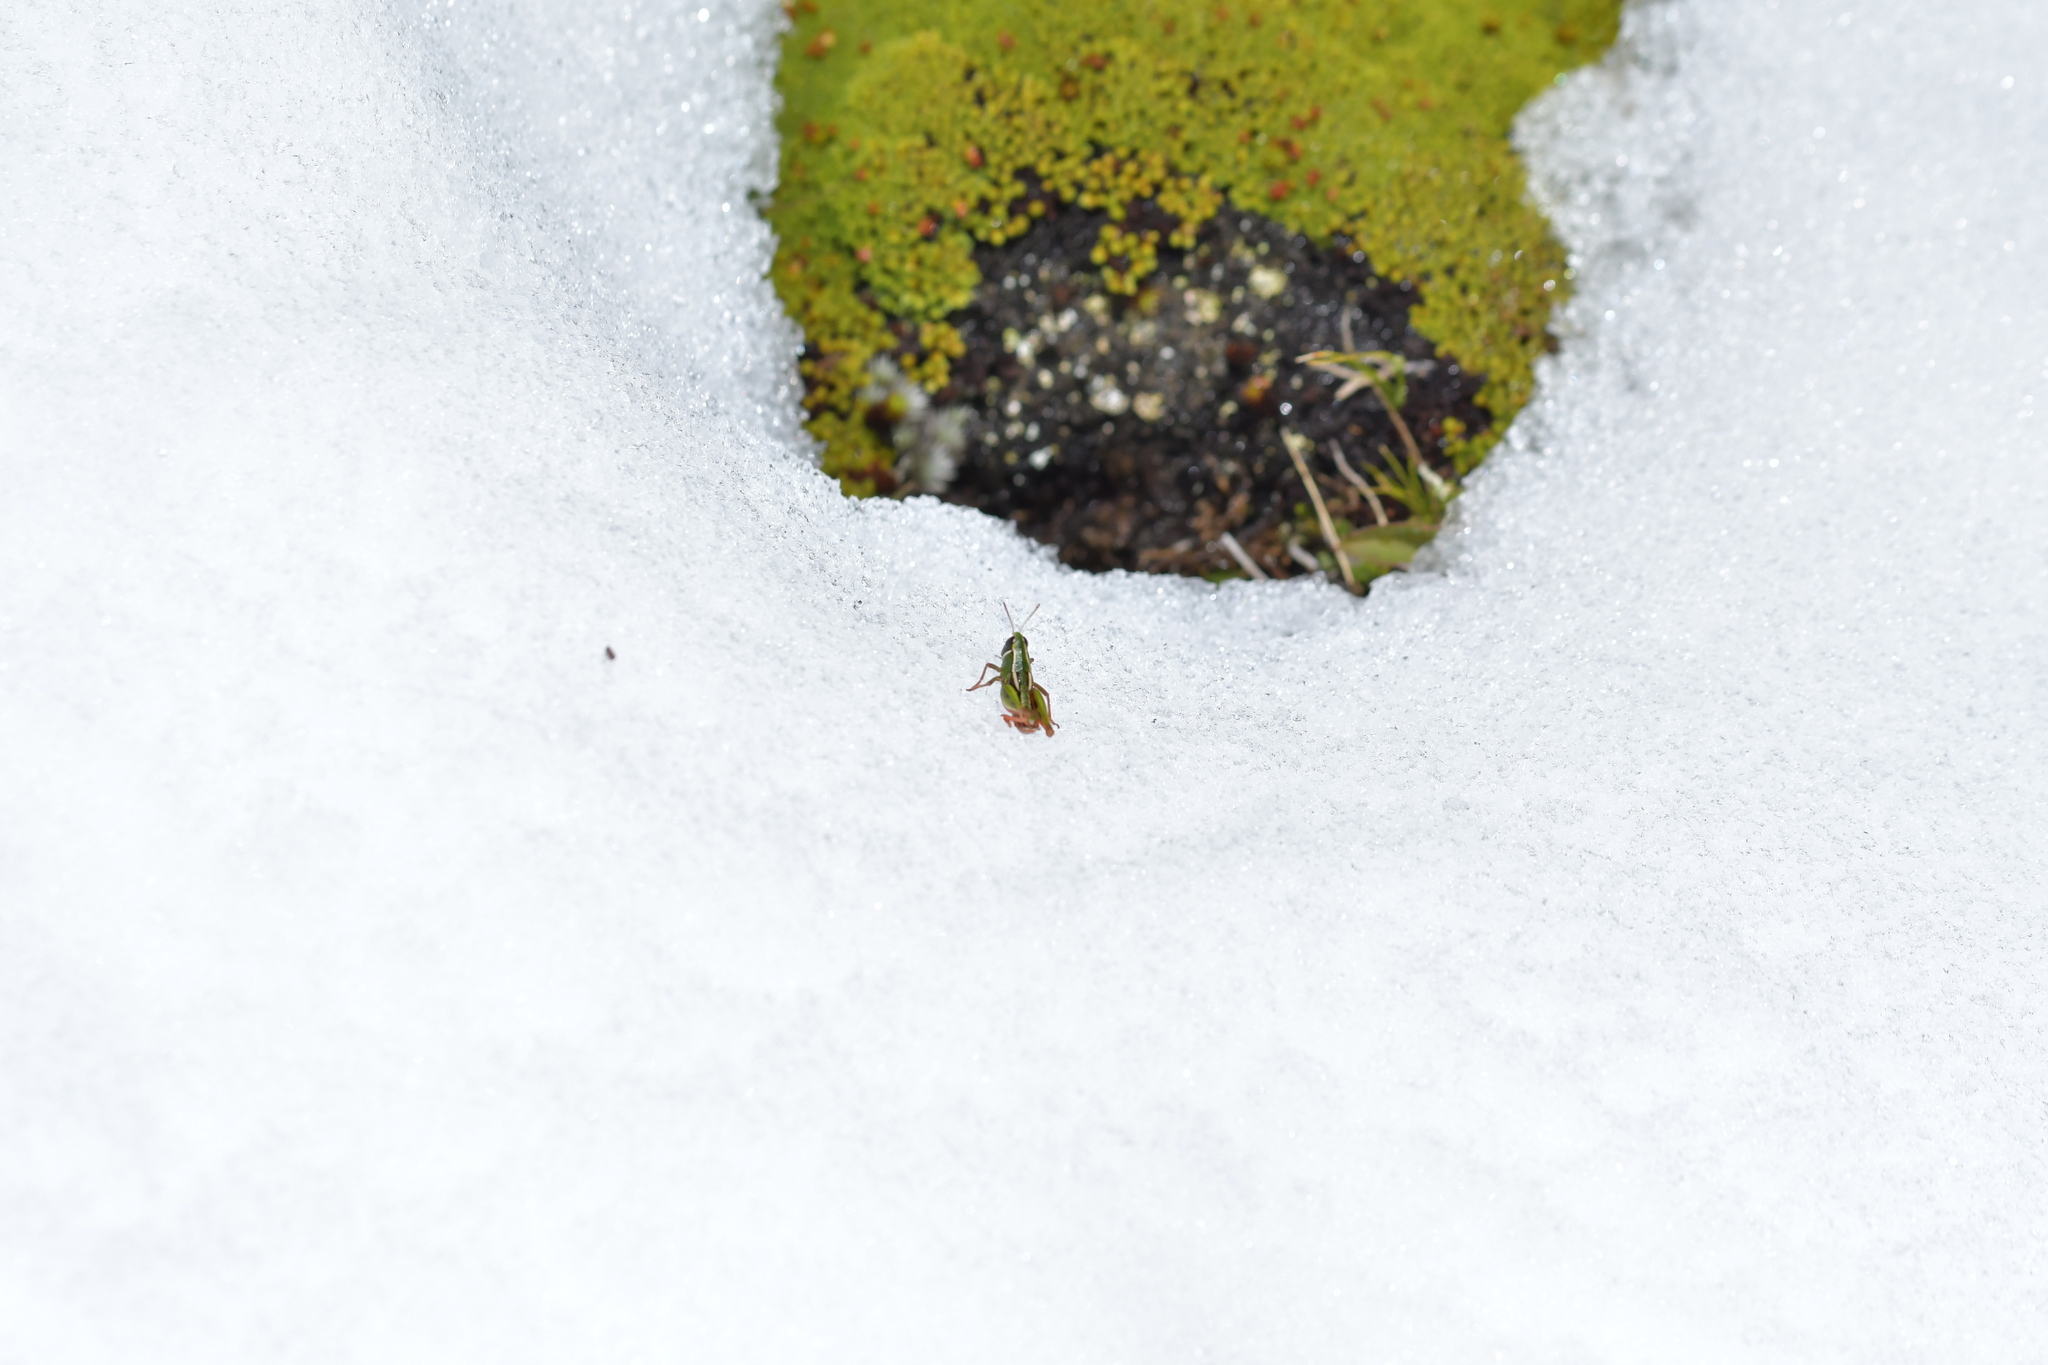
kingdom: Animalia
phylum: Arthropoda
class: Insecta
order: Orthoptera
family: Acrididae
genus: Sigaus
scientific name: Sigaus
